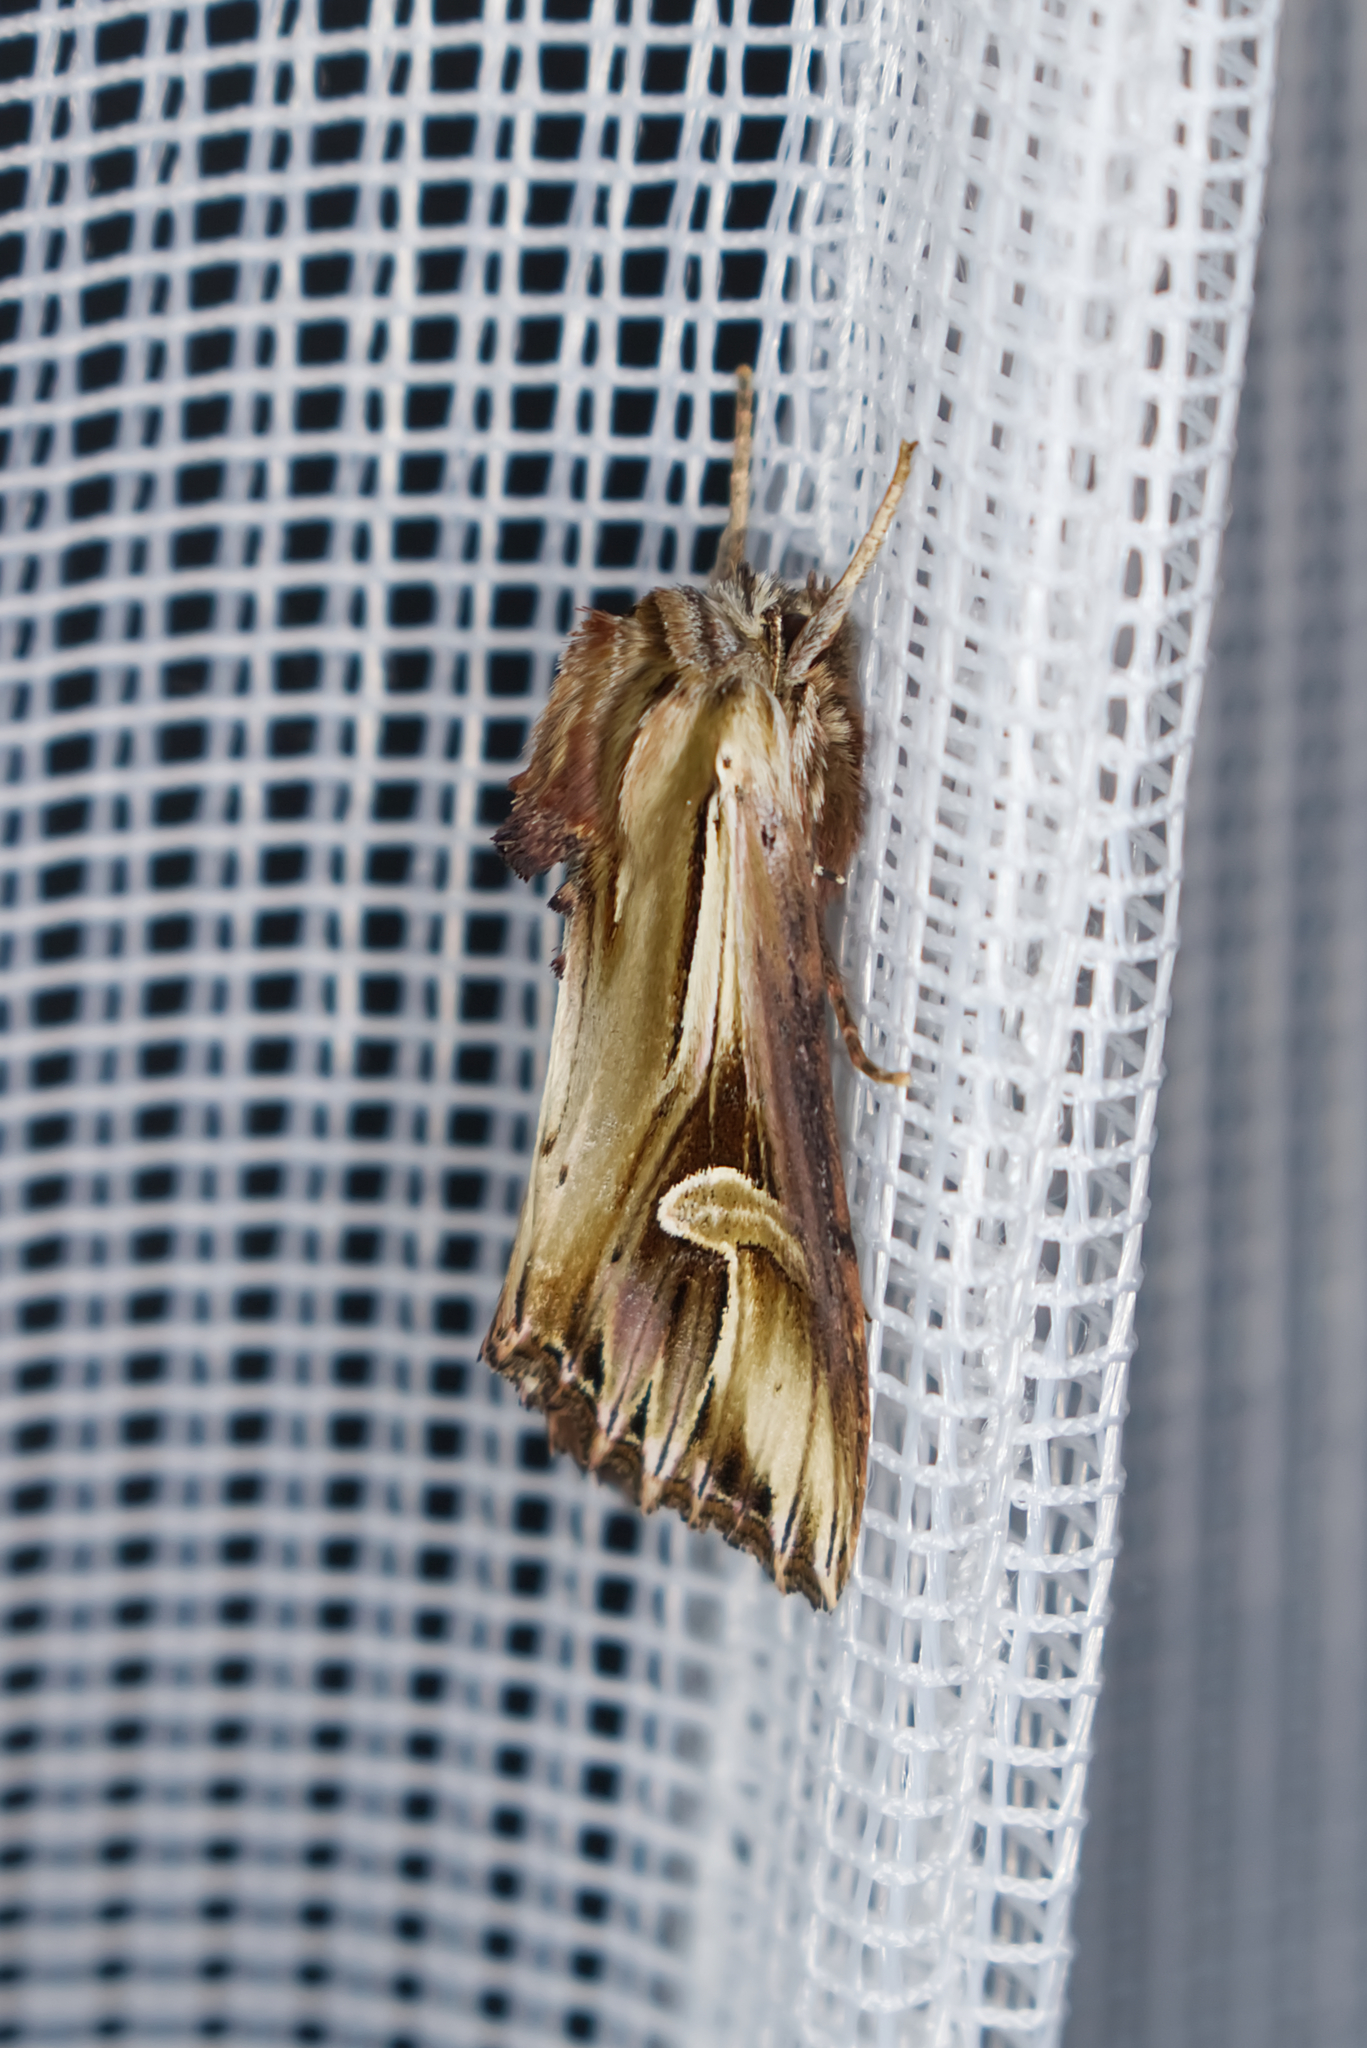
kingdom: Animalia
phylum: Arthropoda
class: Insecta
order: Lepidoptera
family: Noctuidae
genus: Actinotia
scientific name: Actinotia polyodon
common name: Purple cloud
